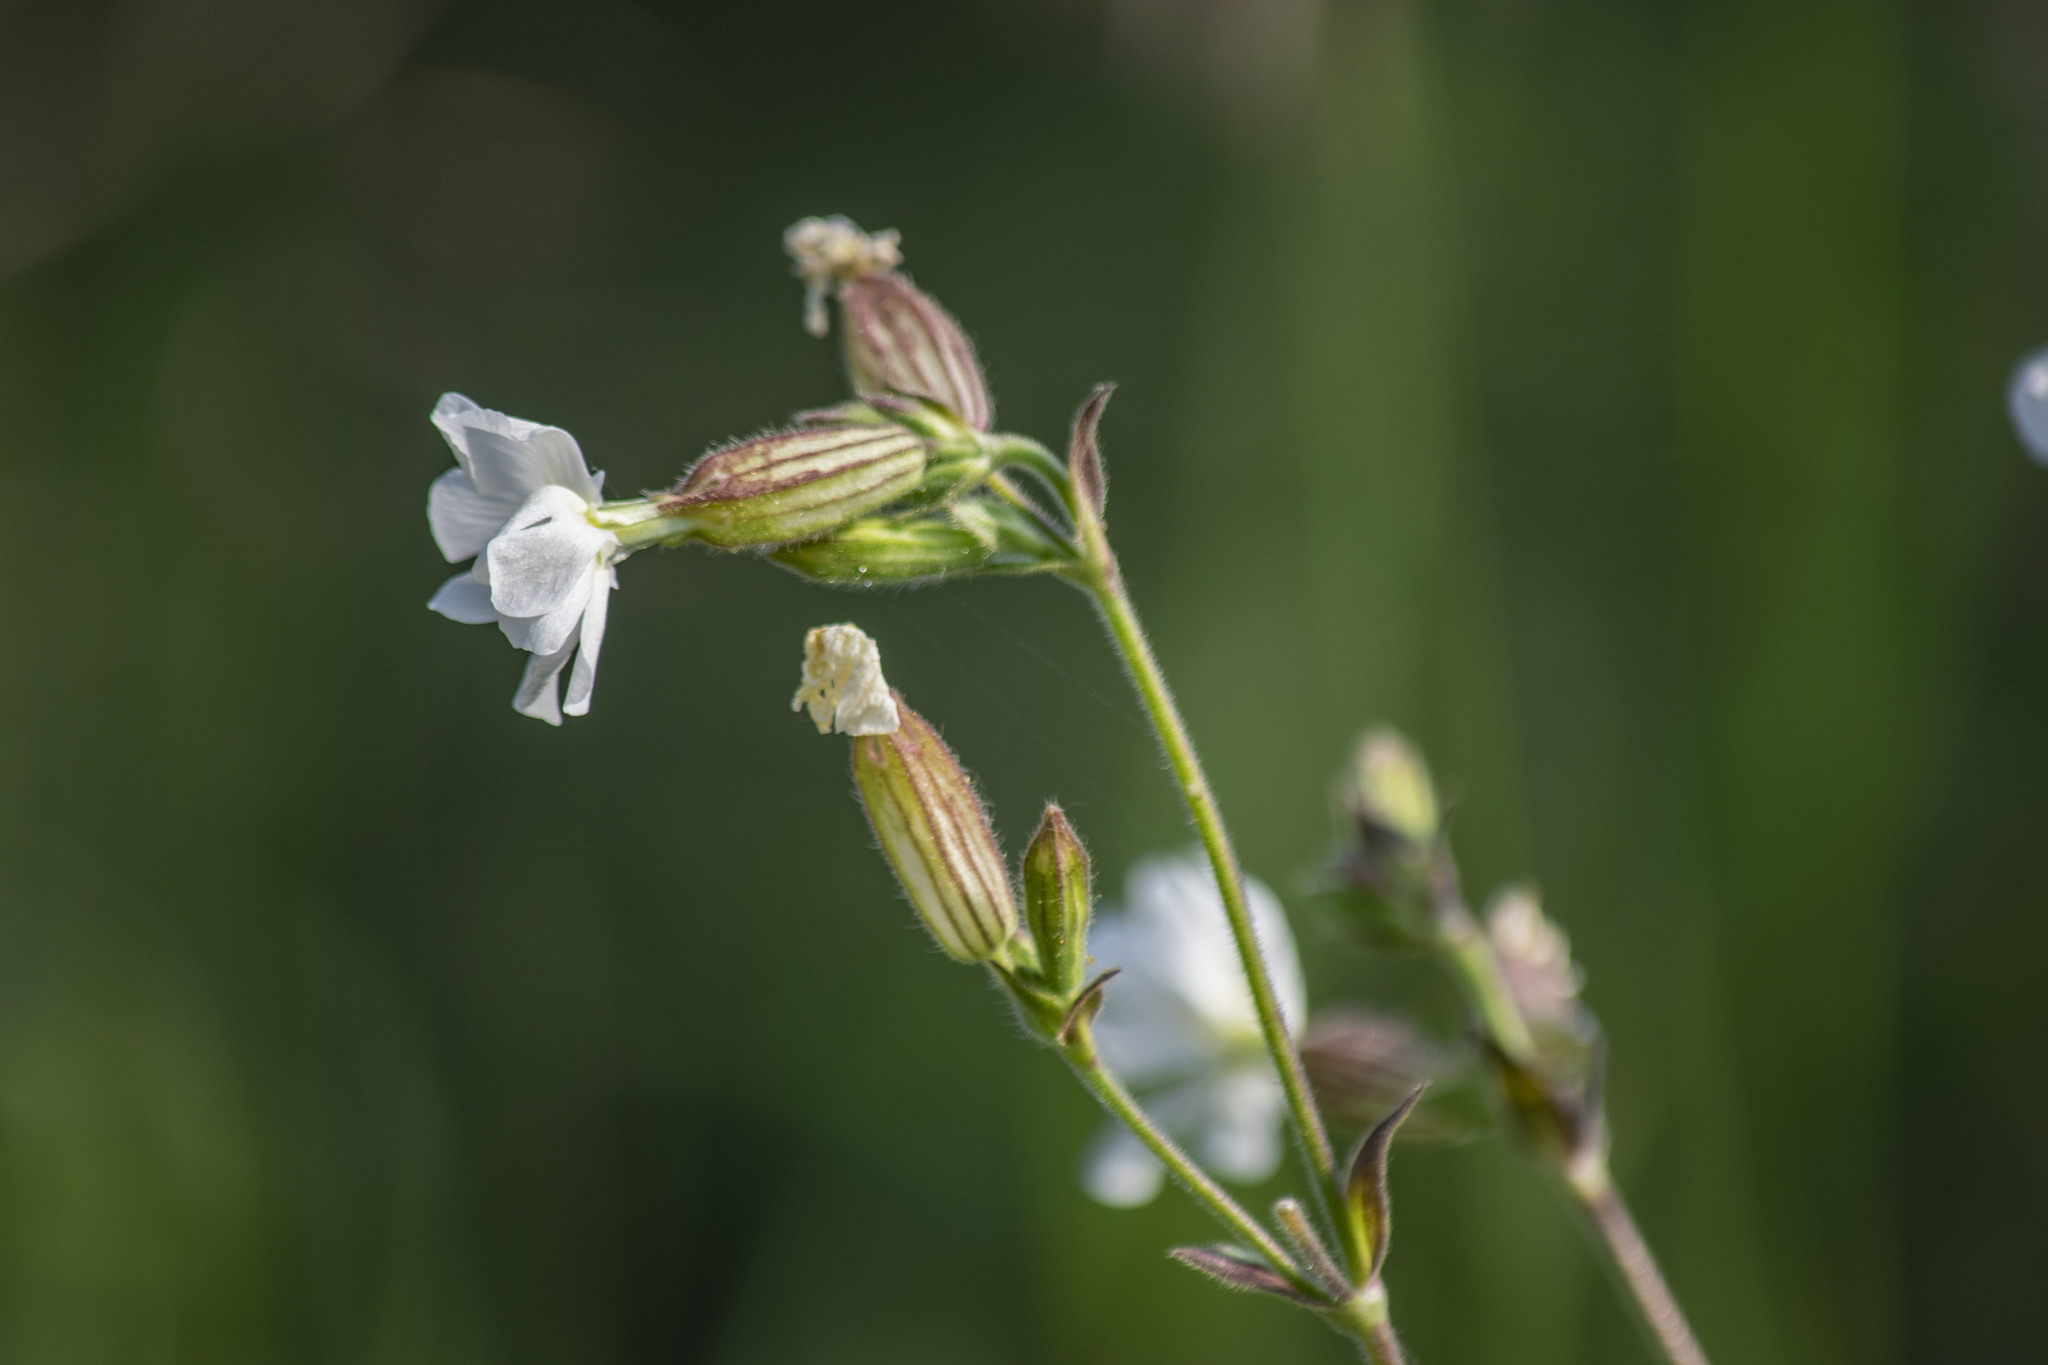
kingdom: Plantae
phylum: Tracheophyta
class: Magnoliopsida
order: Caryophyllales
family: Caryophyllaceae
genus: Silene
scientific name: Silene latifolia
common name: White campion
